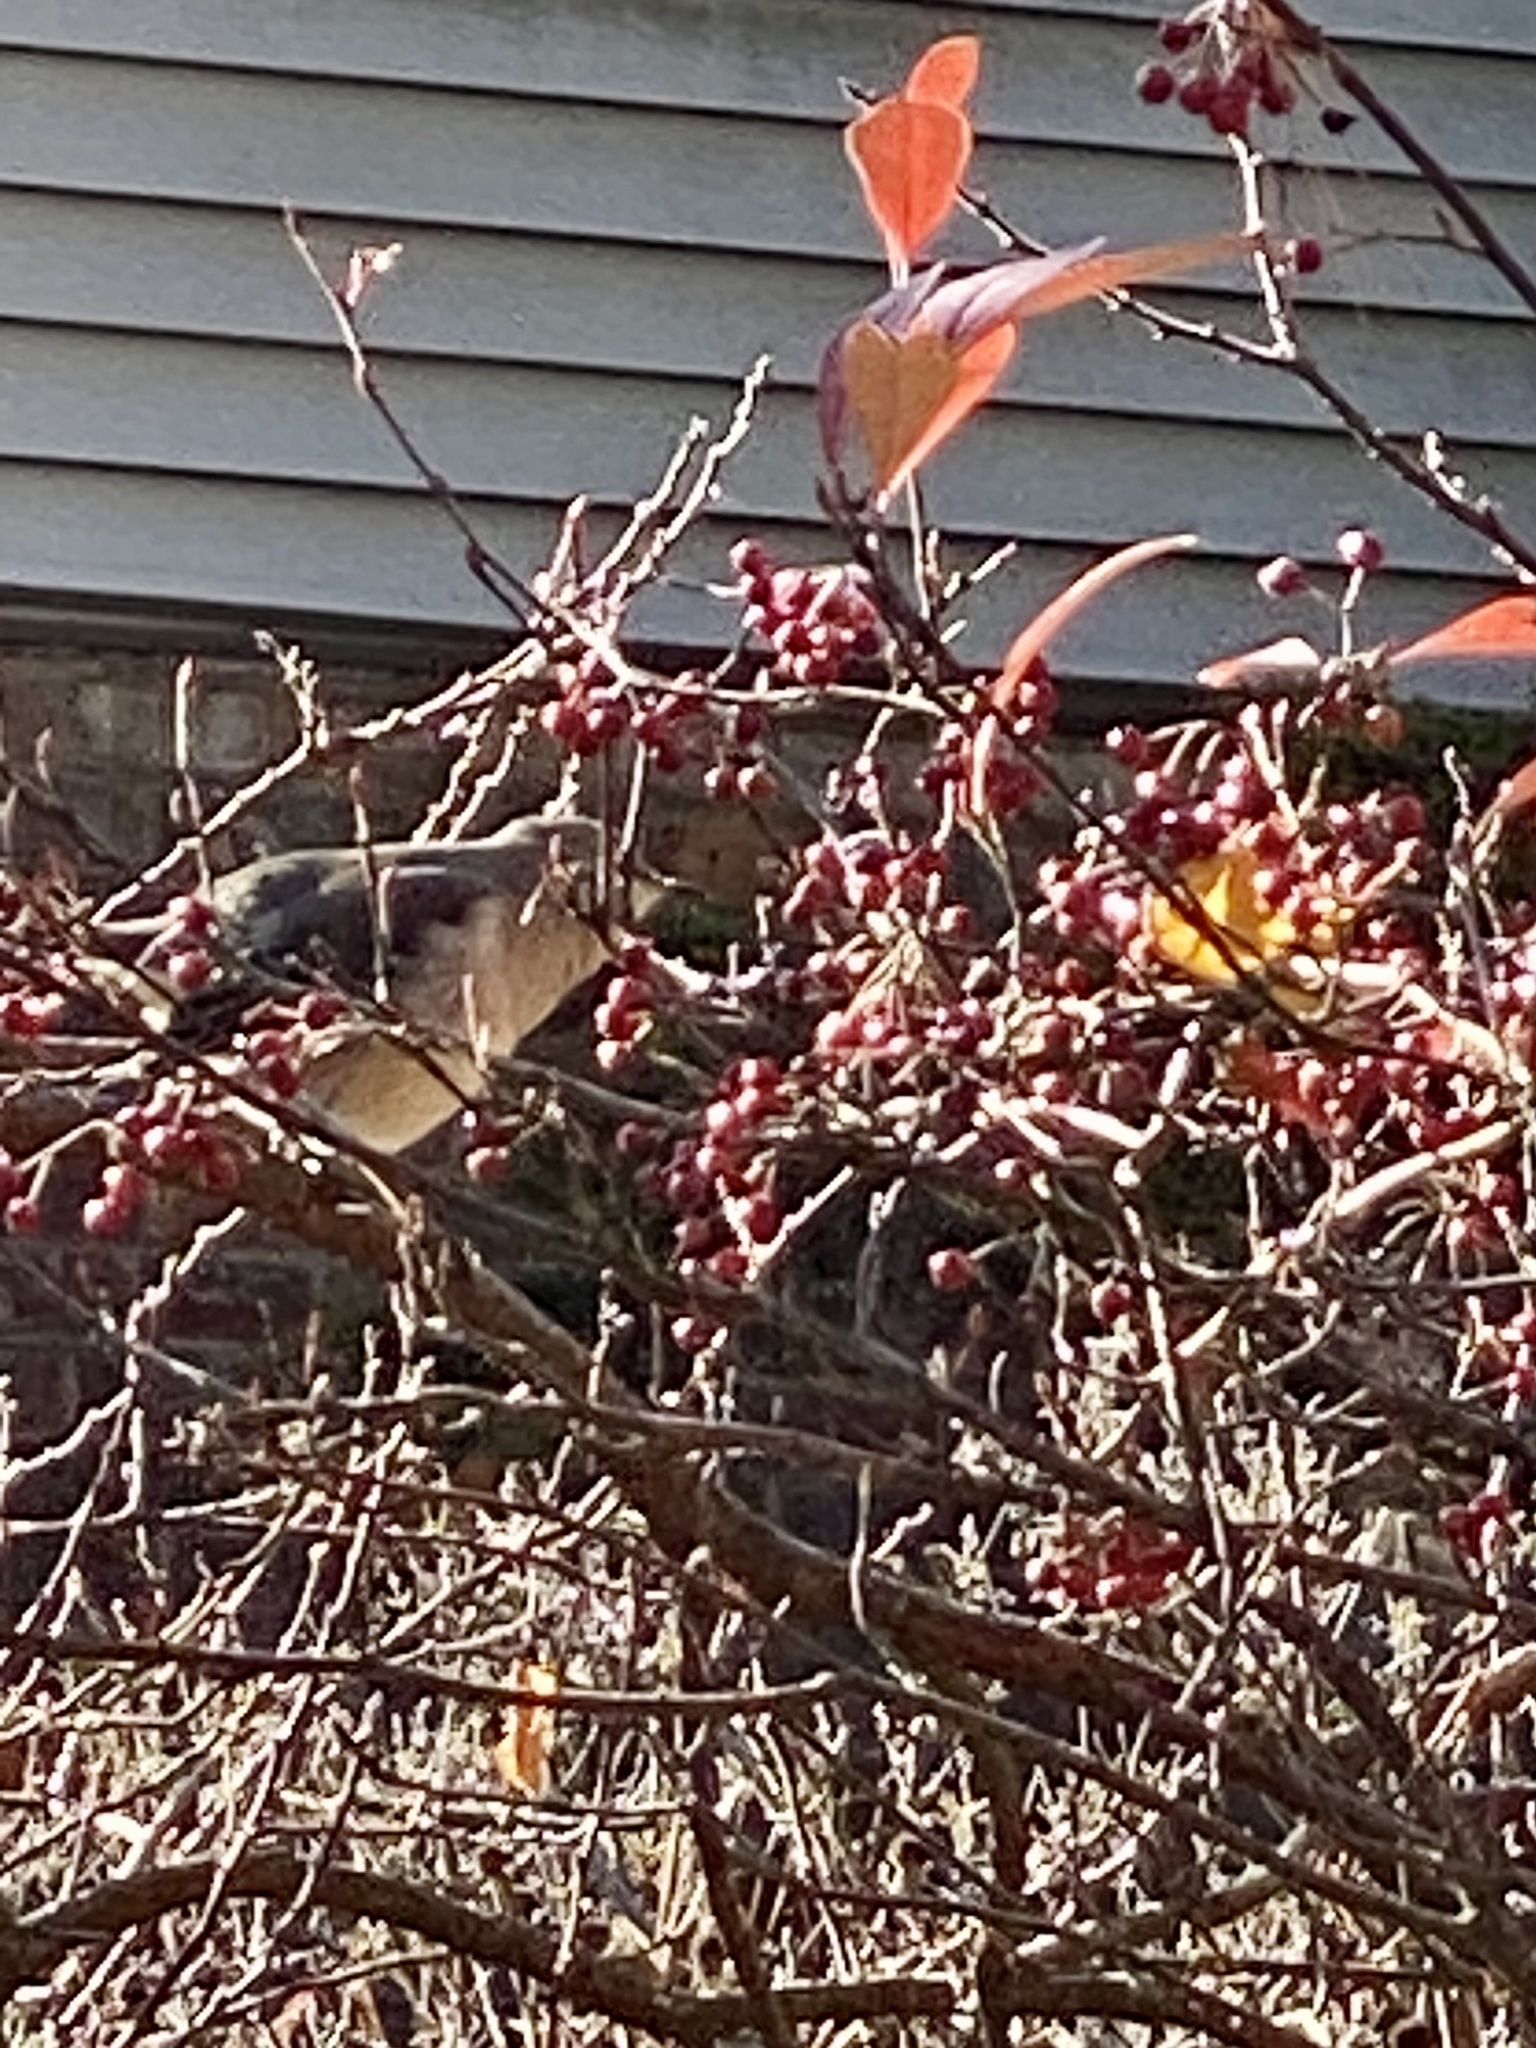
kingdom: Animalia
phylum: Chordata
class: Aves
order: Passeriformes
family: Mimidae
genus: Mimus
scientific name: Mimus polyglottos
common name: Northern mockingbird
